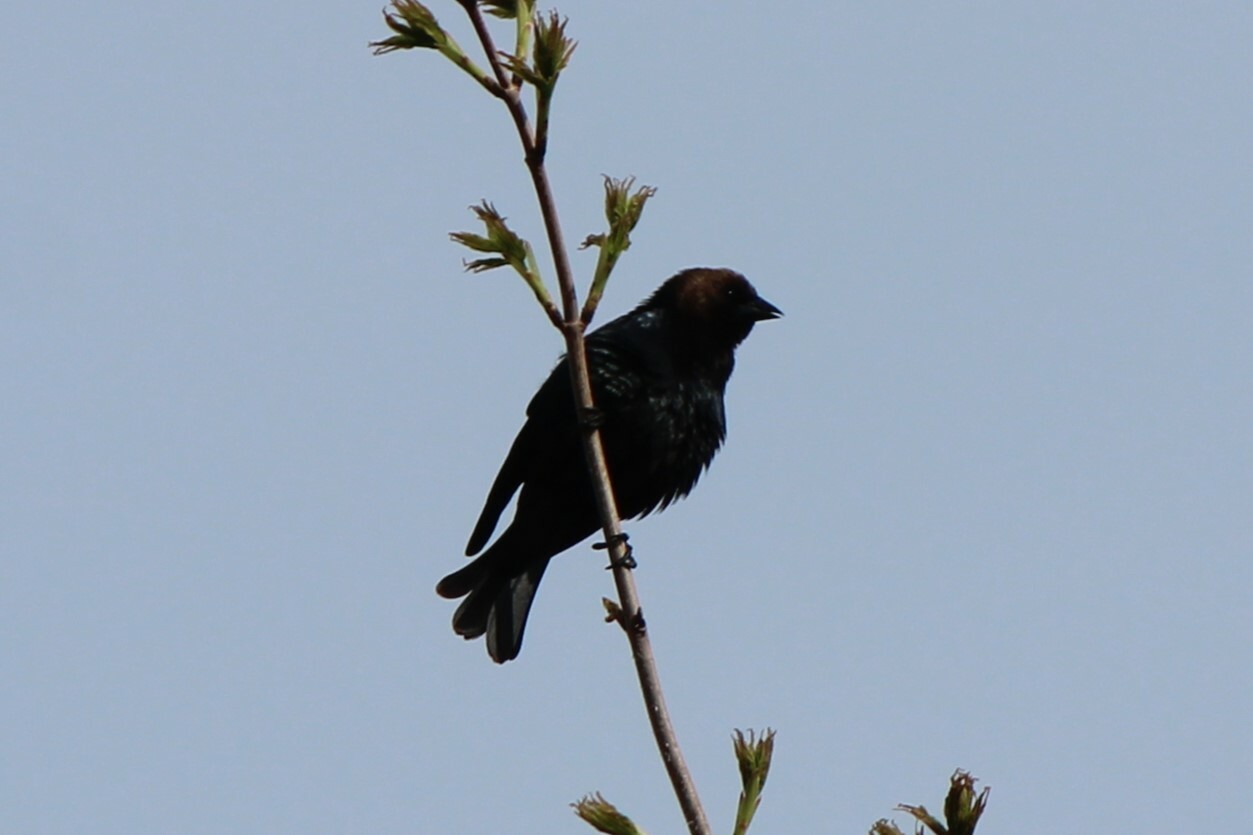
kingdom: Animalia
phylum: Chordata
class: Aves
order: Passeriformes
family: Icteridae
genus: Molothrus
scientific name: Molothrus ater
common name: Brown-headed cowbird
